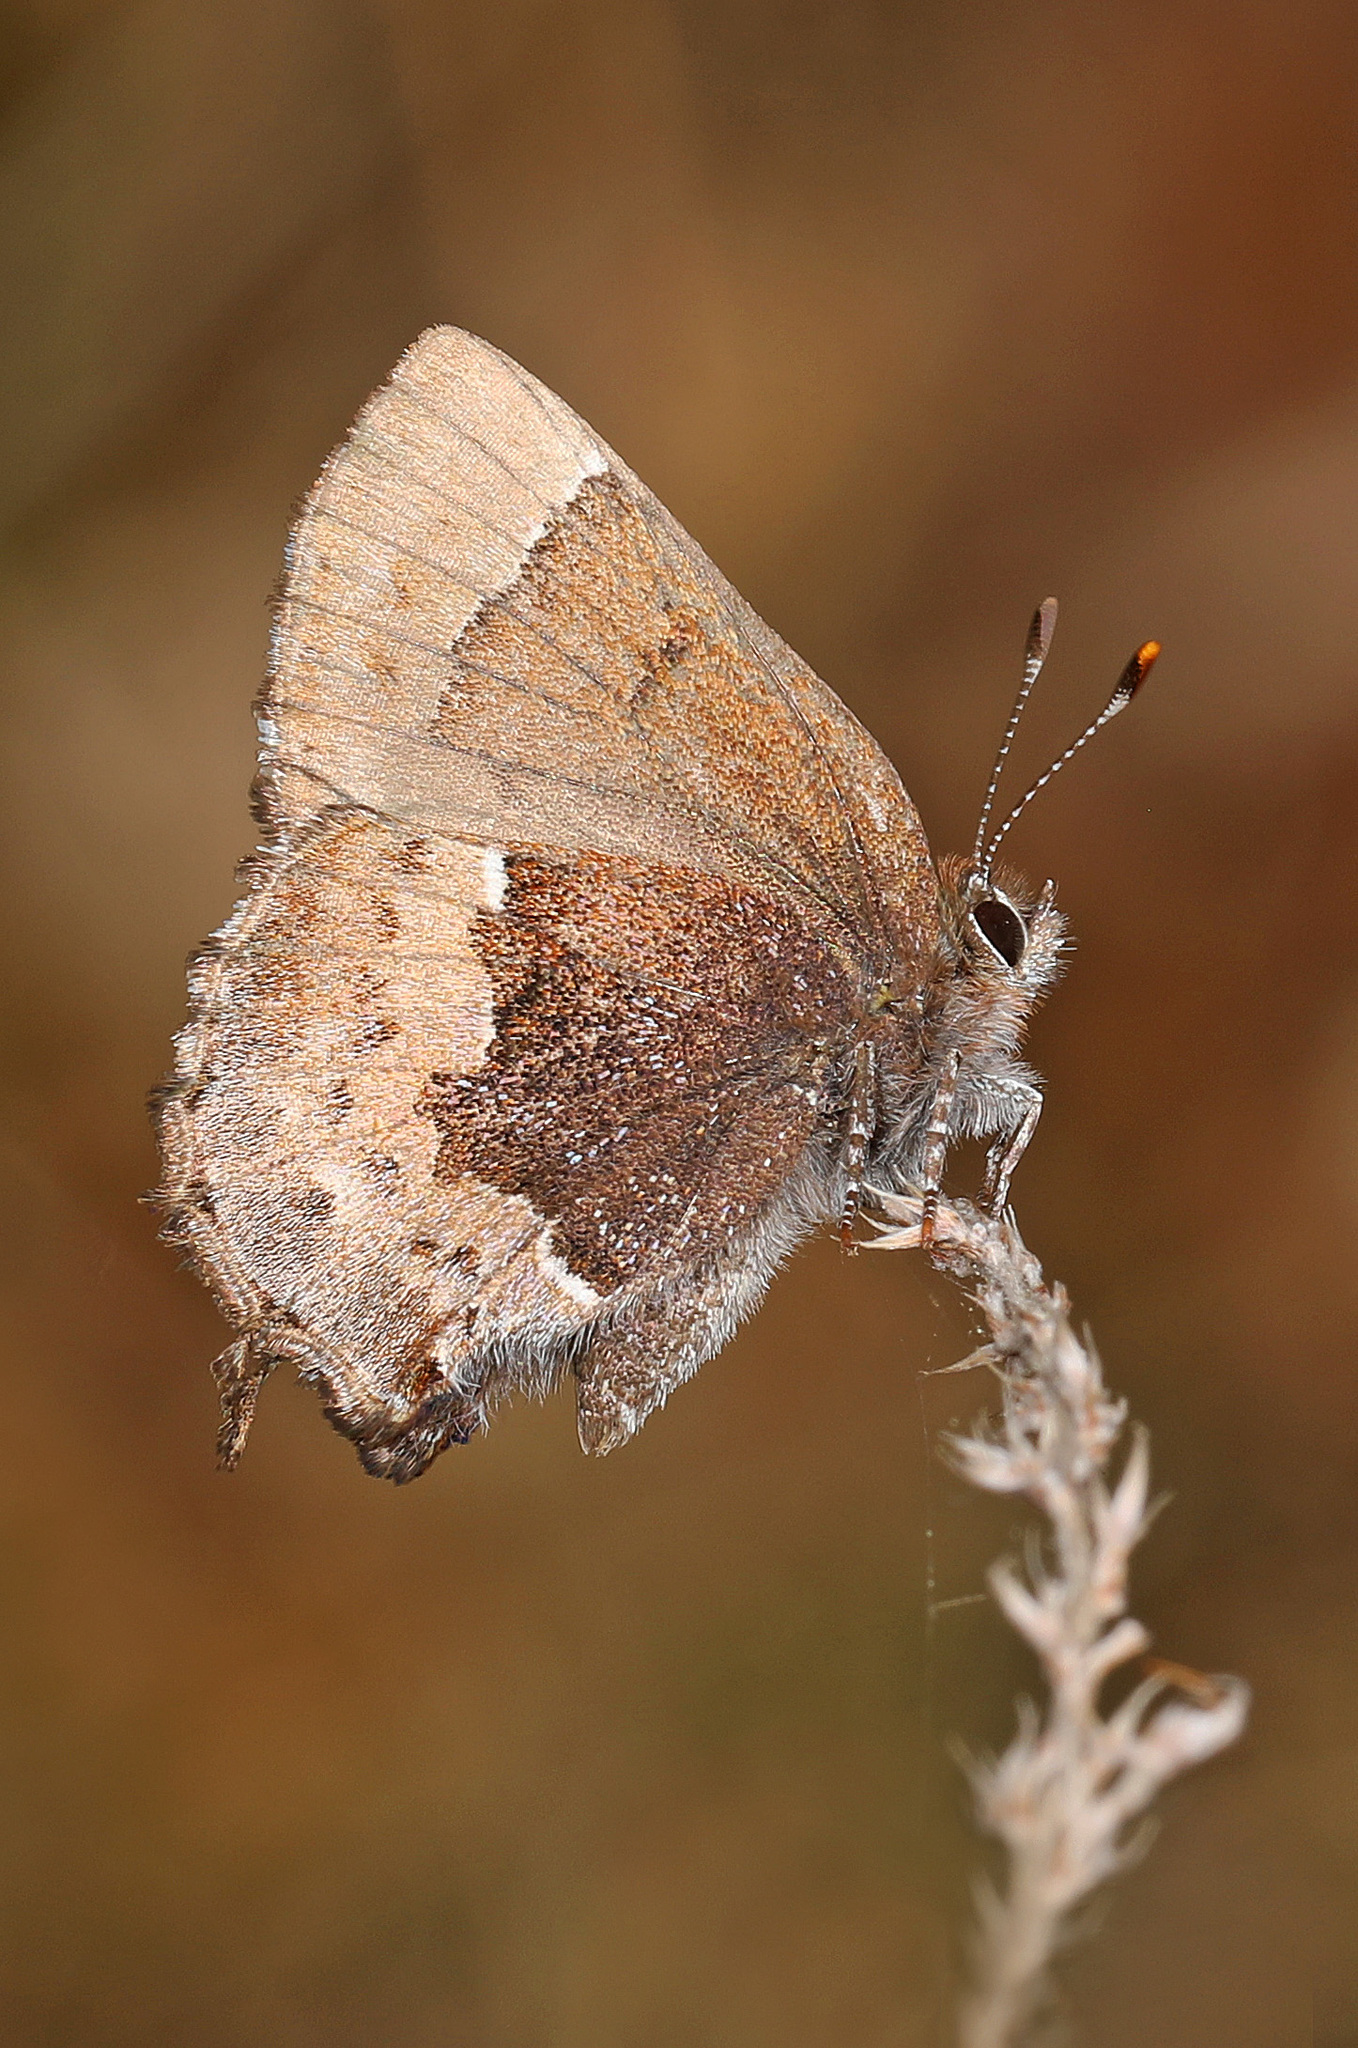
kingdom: Animalia
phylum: Arthropoda
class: Insecta
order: Lepidoptera
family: Lycaenidae
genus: Incisalia
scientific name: Incisalia henrici
